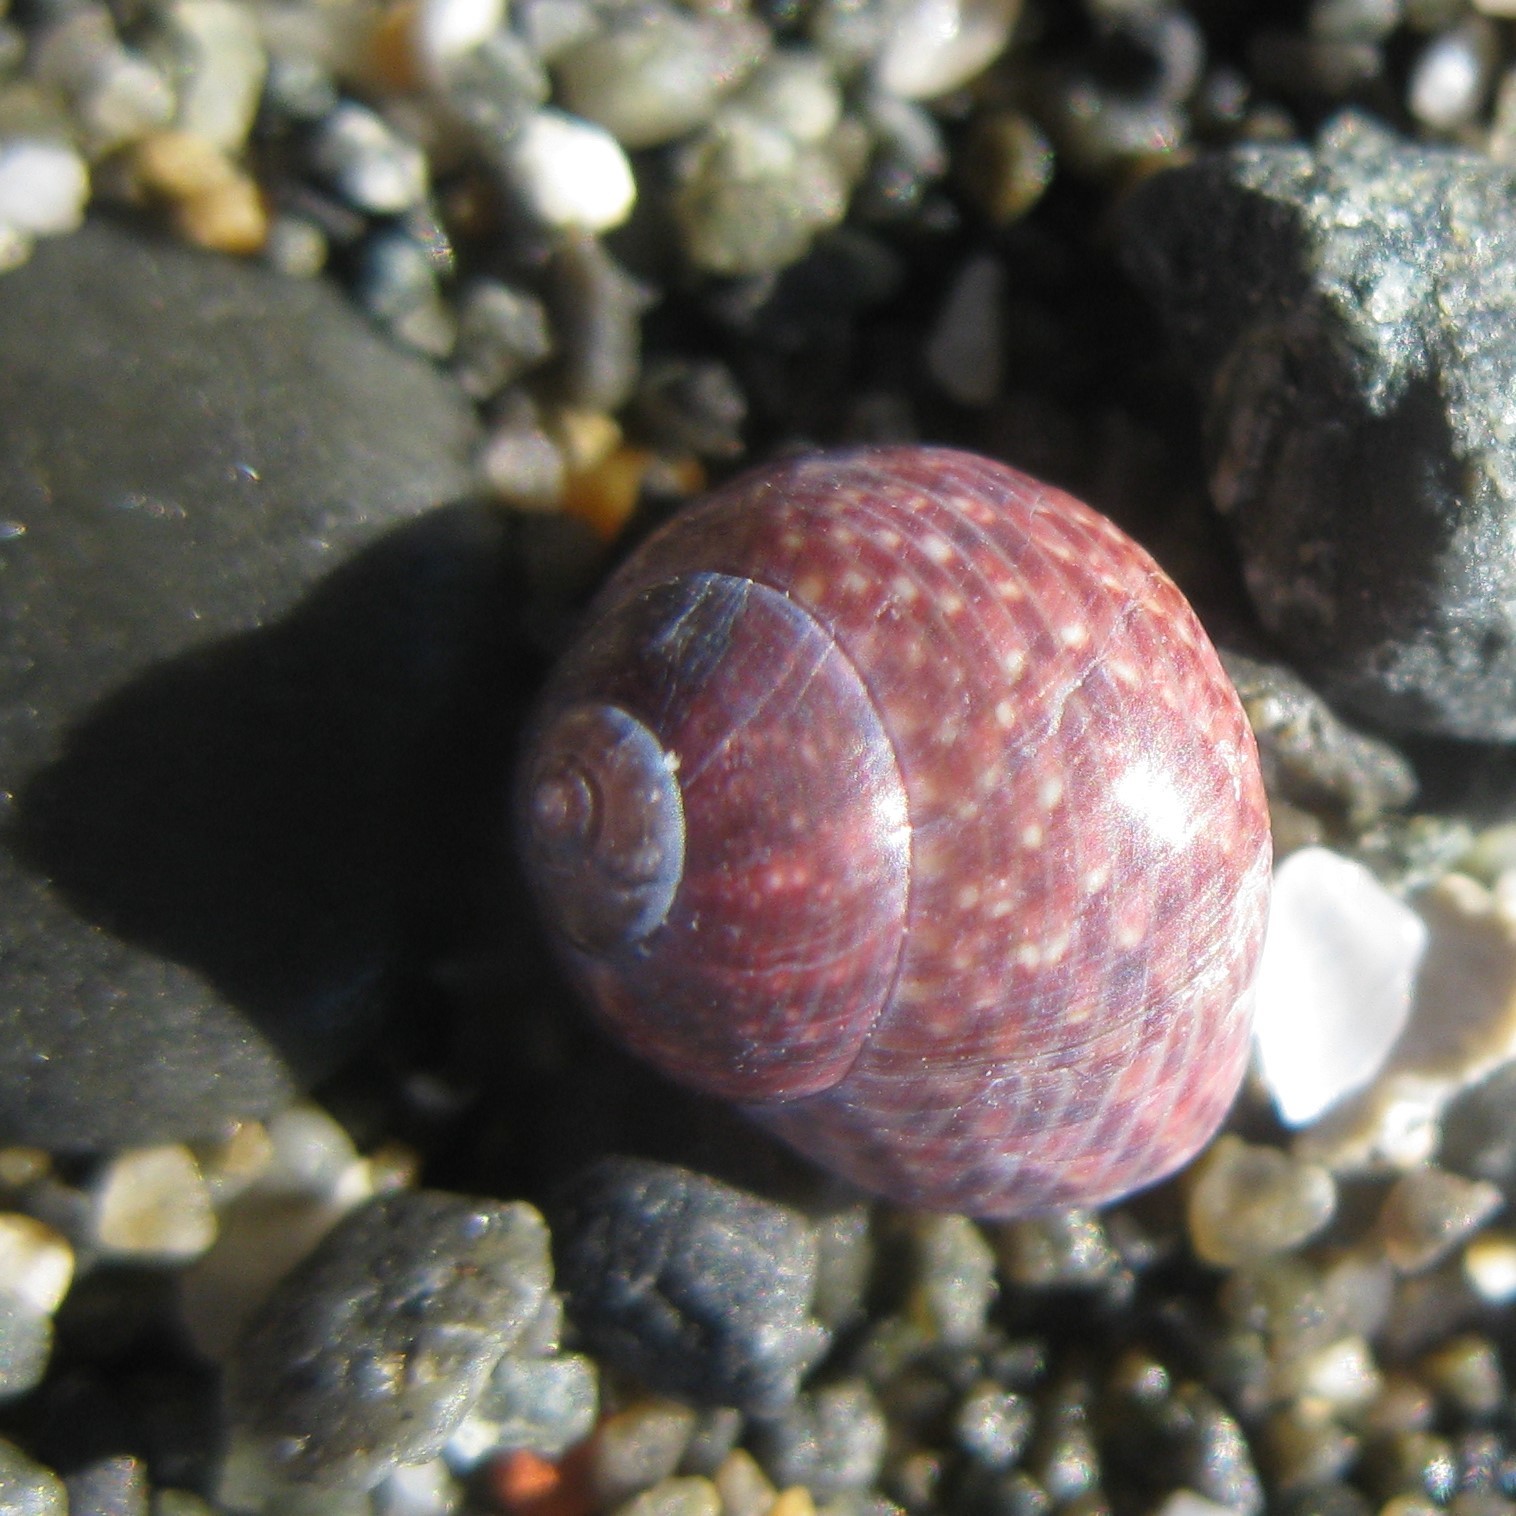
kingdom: Animalia
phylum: Mollusca
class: Gastropoda
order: Trochida
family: Trochidae
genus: Micrelenchus
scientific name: Micrelenchus tessellatus
